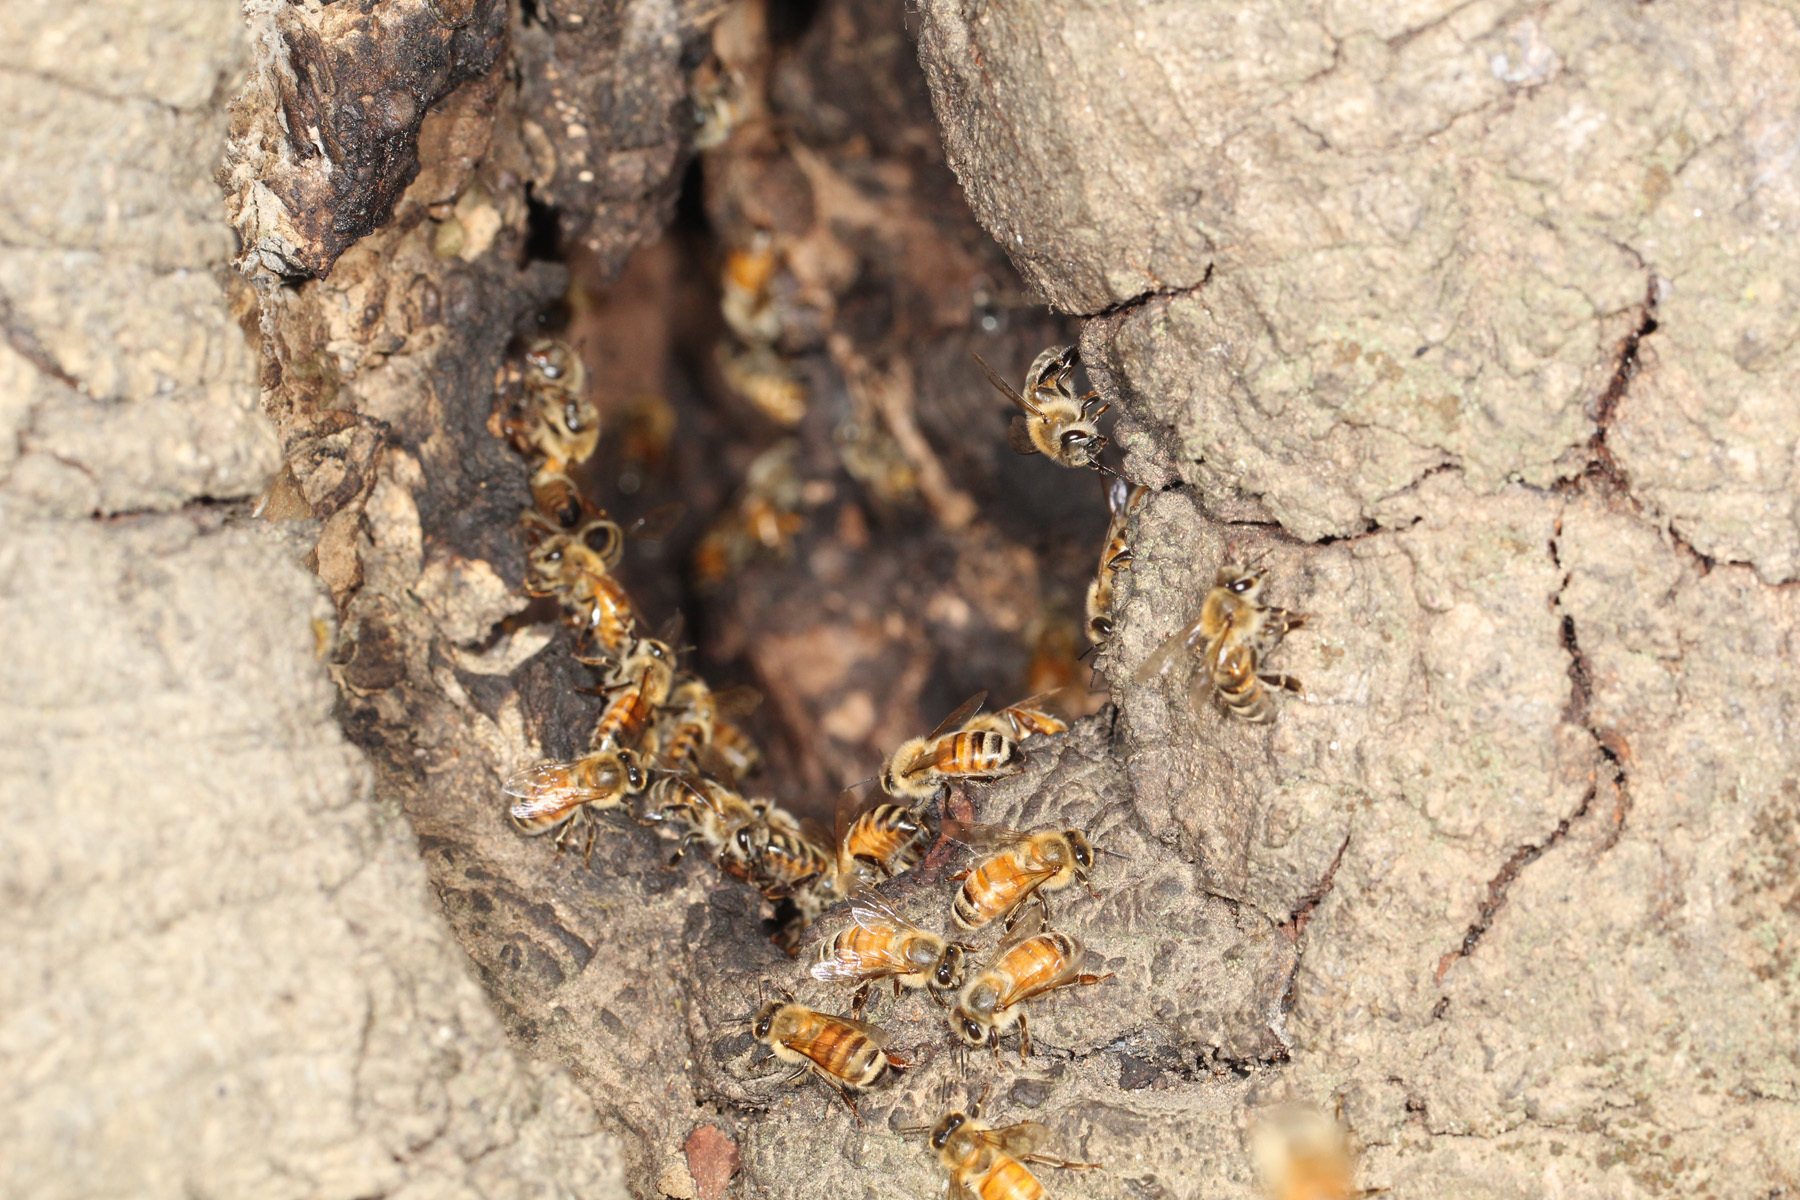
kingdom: Animalia
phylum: Arthropoda
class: Insecta
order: Hymenoptera
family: Apidae
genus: Apis
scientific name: Apis mellifera
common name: Honey bee
